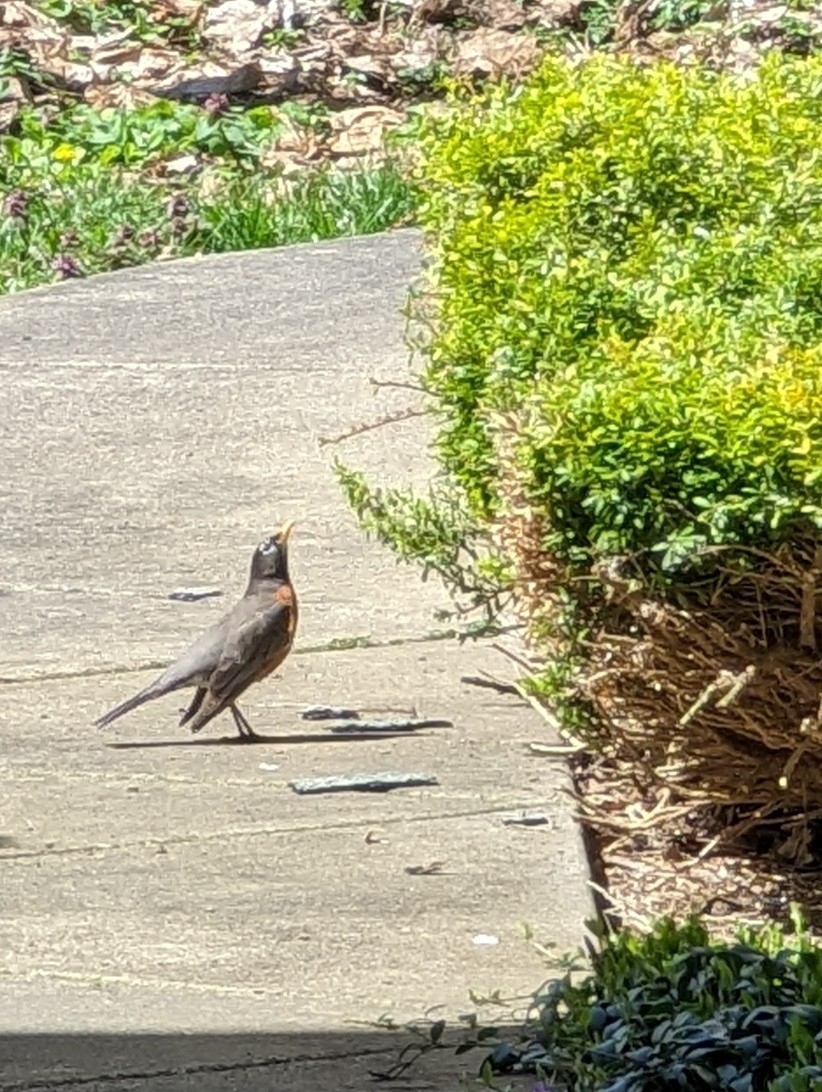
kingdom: Animalia
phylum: Chordata
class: Aves
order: Passeriformes
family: Turdidae
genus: Turdus
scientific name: Turdus migratorius
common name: American robin
